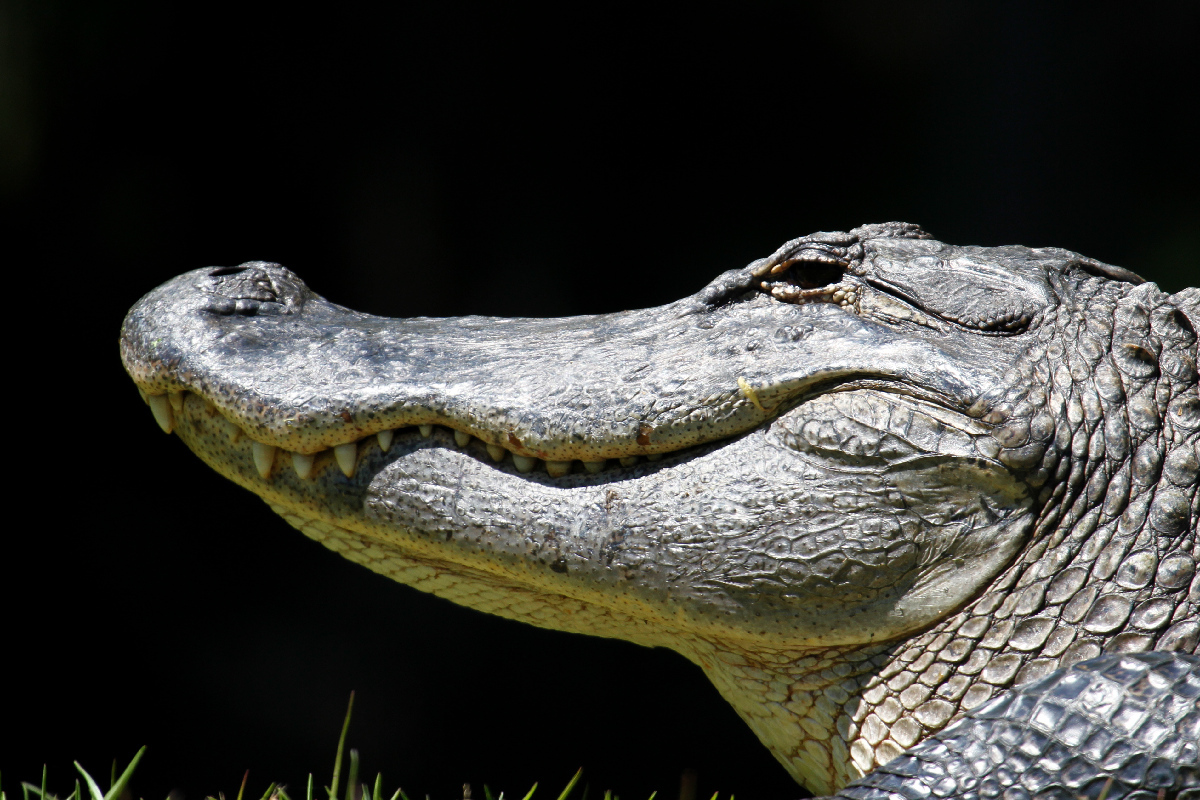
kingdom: Animalia
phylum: Chordata
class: Crocodylia
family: Alligatoridae
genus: Alligator
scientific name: Alligator mississippiensis
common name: American alligator
